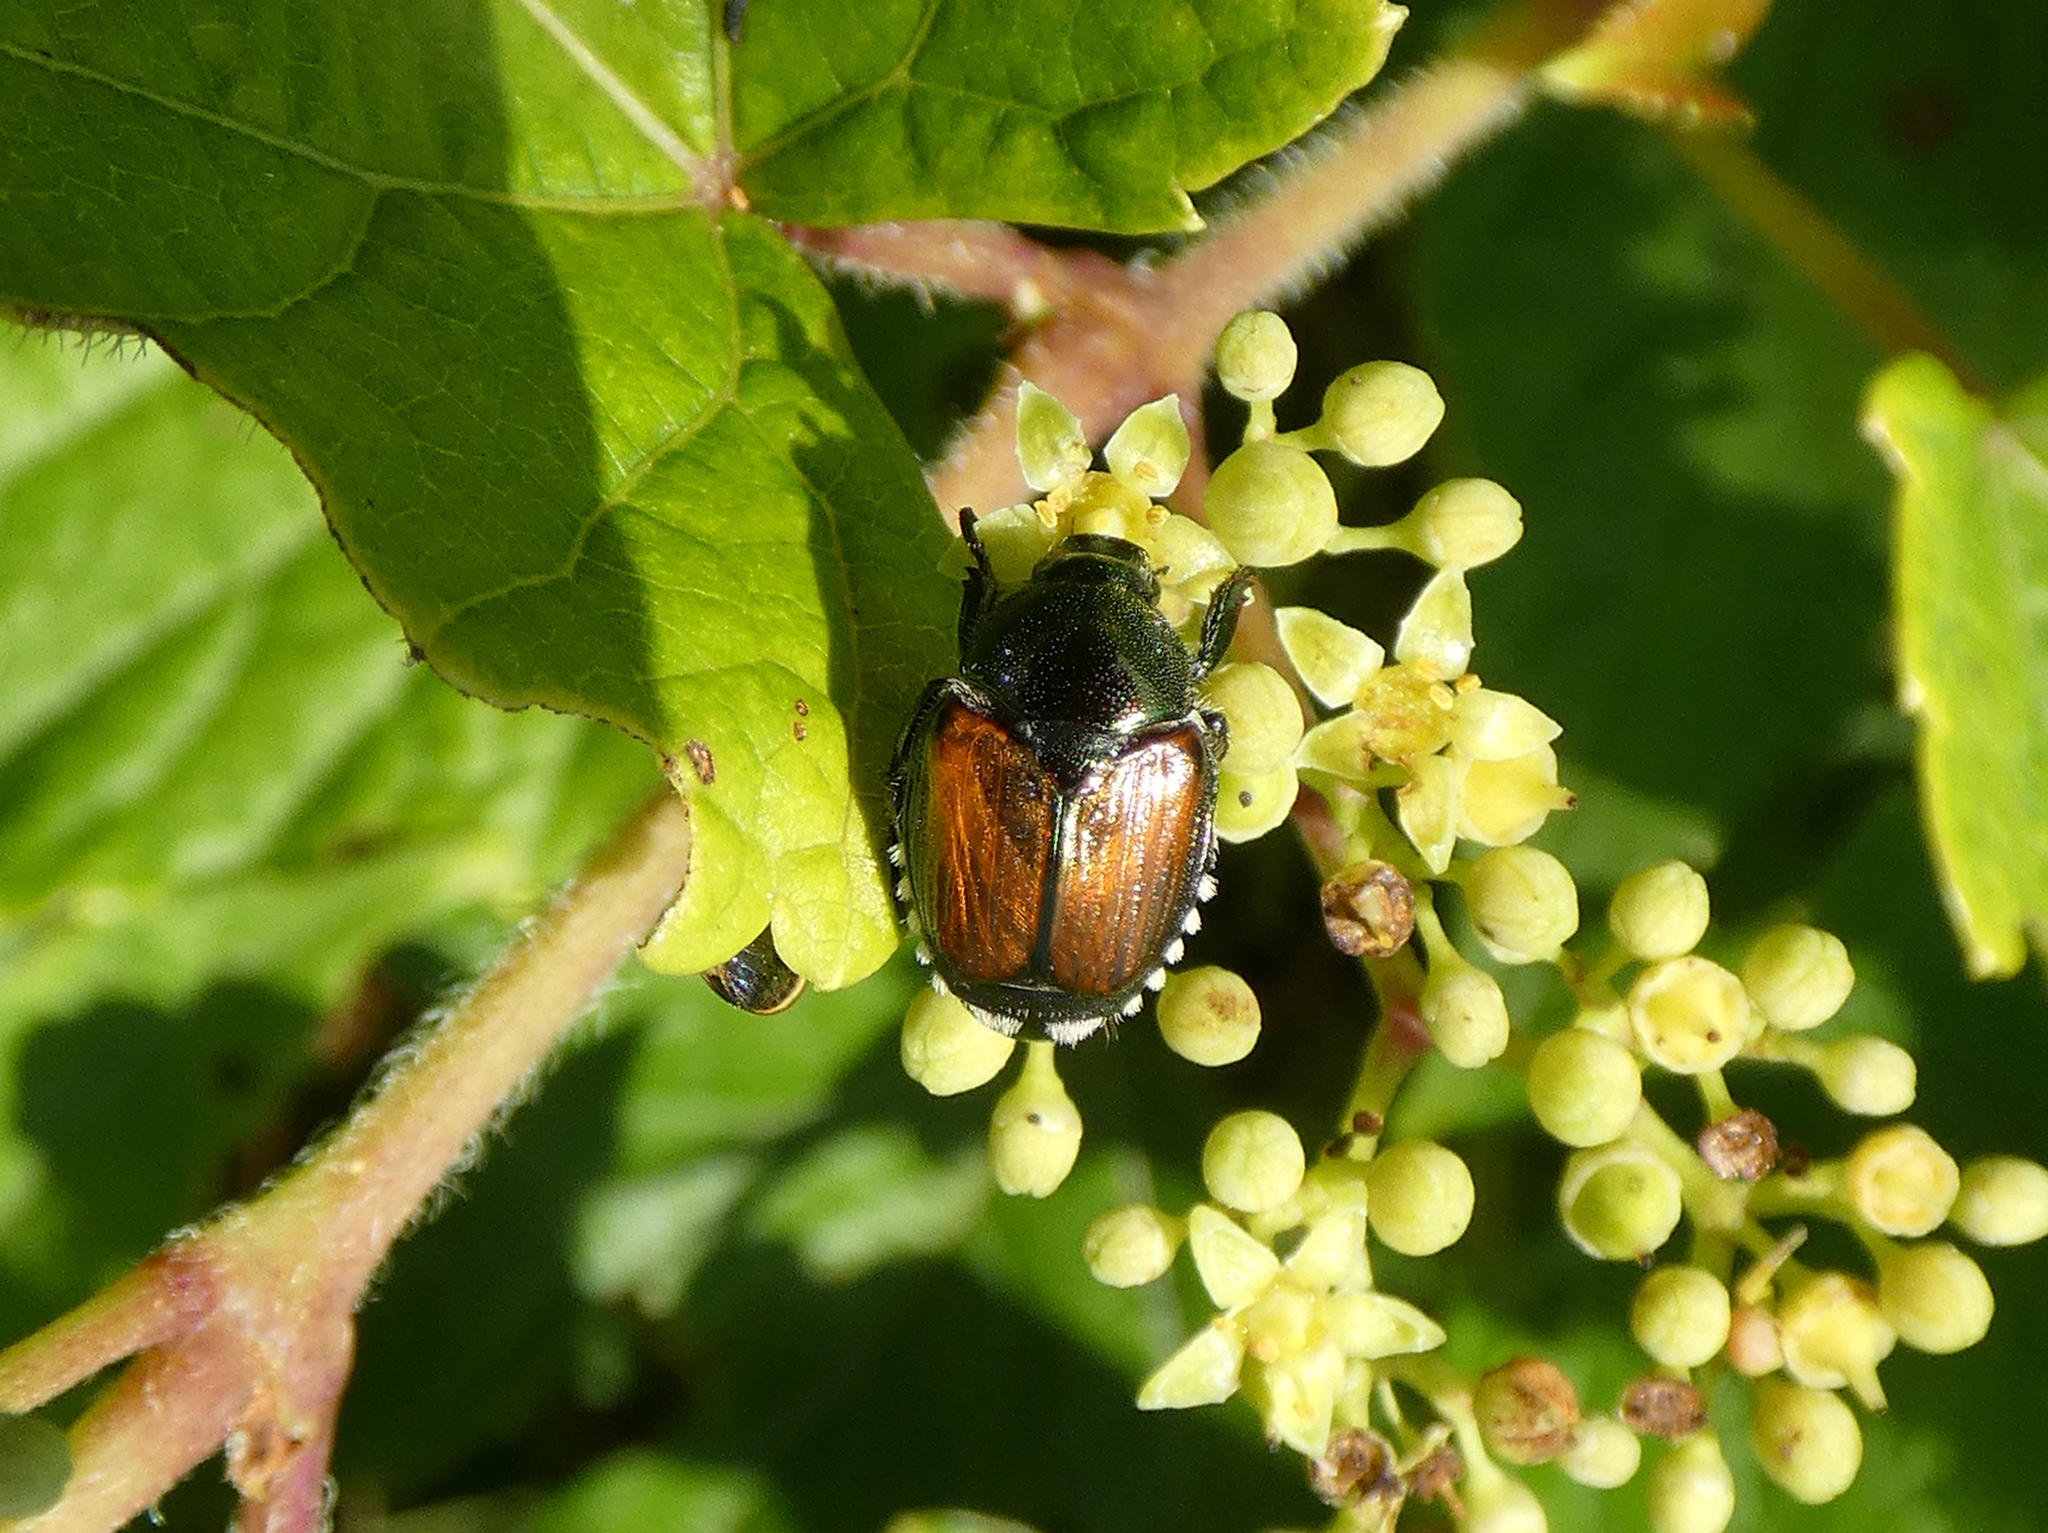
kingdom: Animalia
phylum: Arthropoda
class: Insecta
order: Coleoptera
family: Scarabaeidae
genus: Popillia
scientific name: Popillia japonica
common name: Japanese beetle
